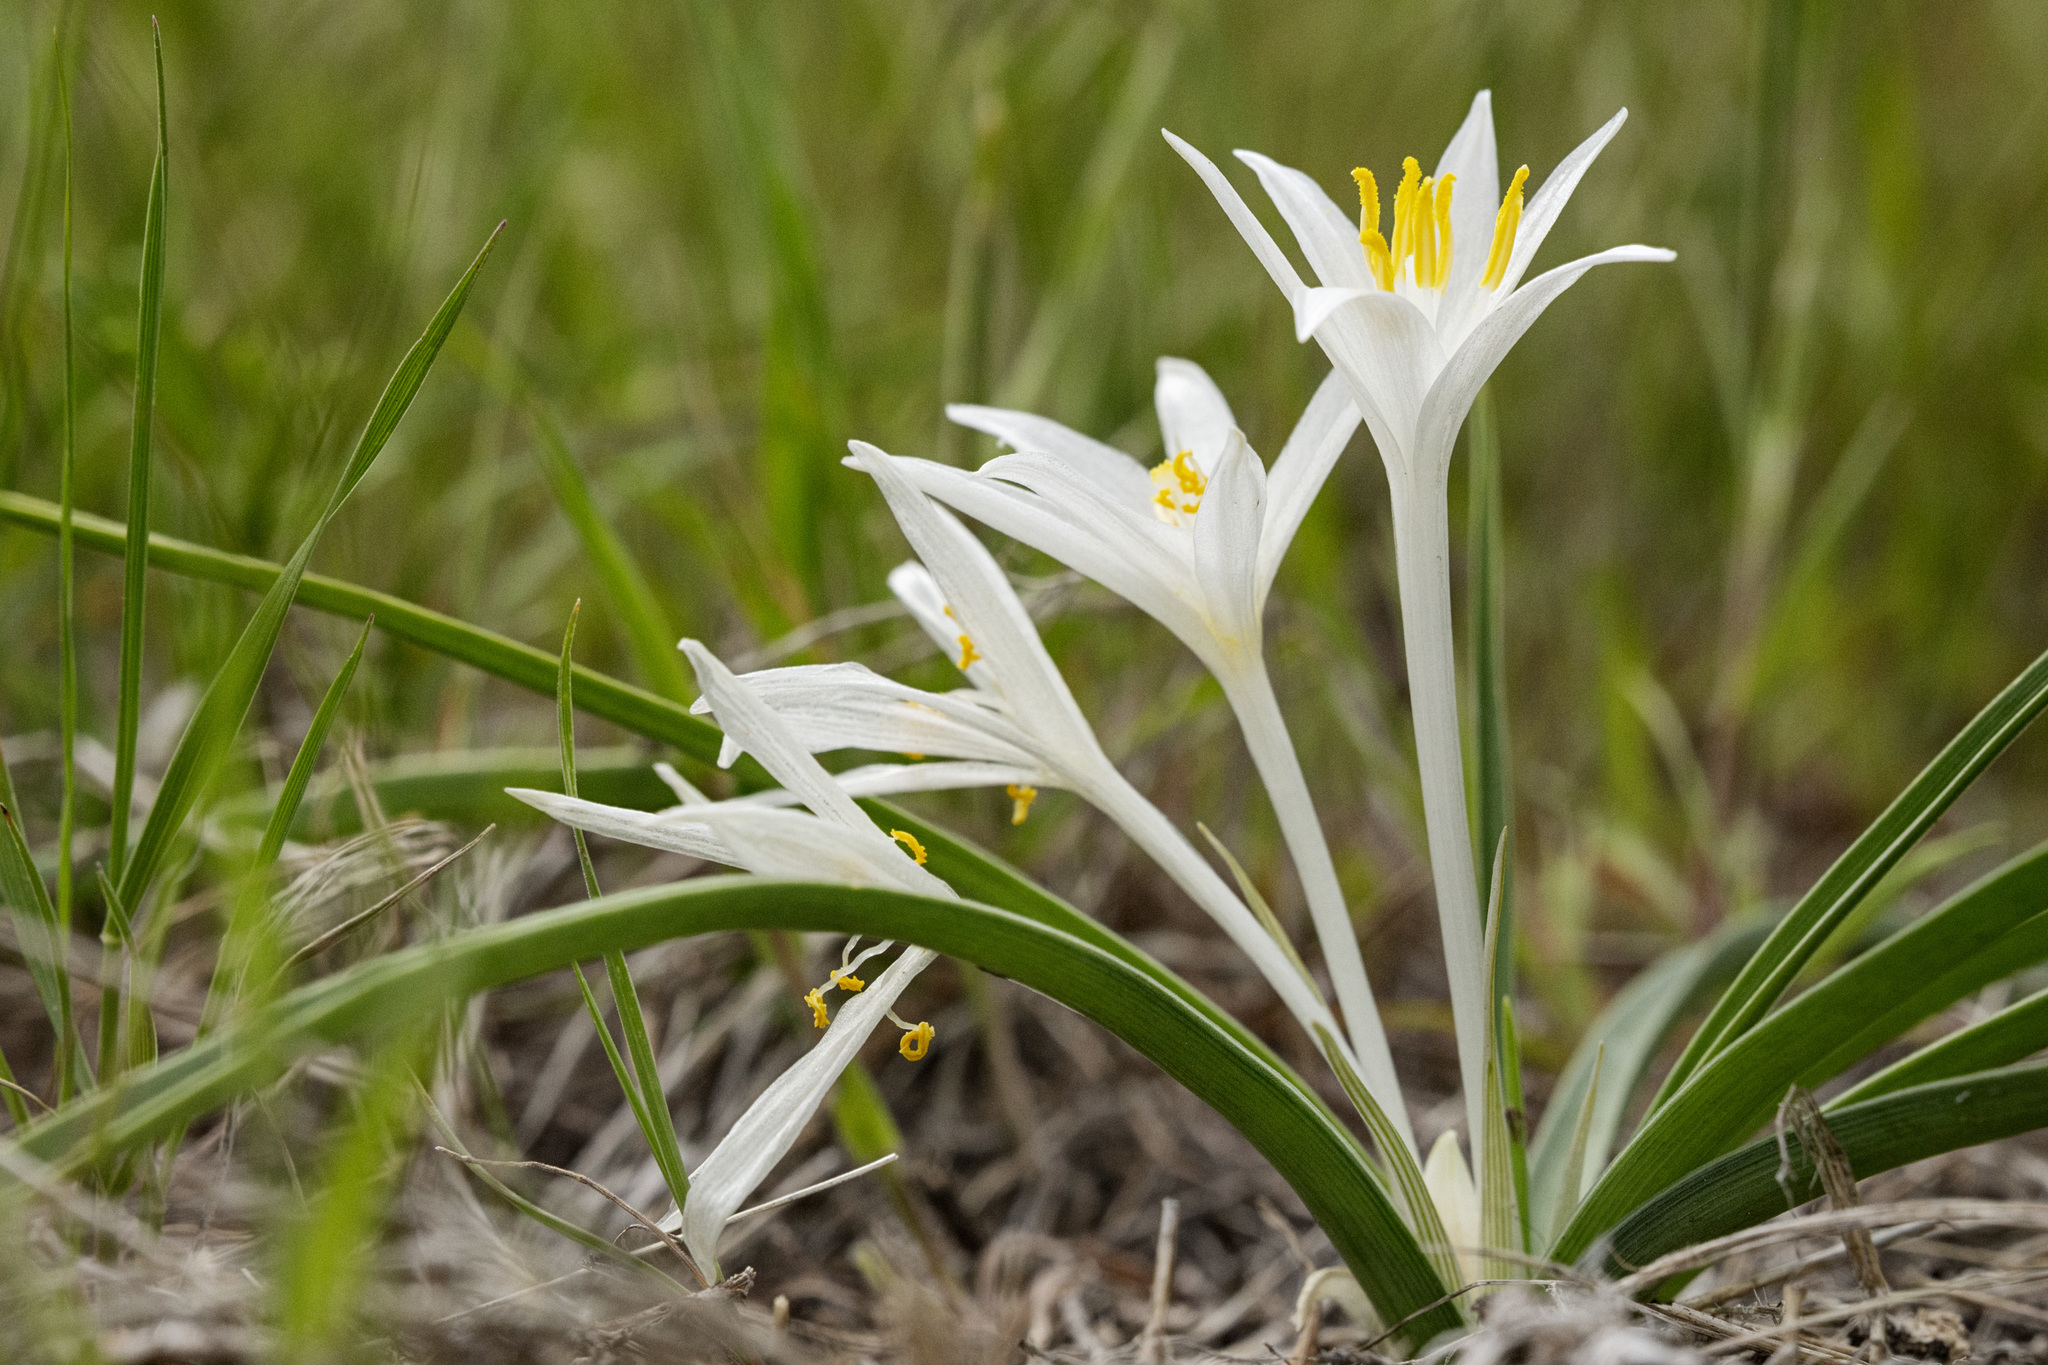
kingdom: Plantae
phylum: Tracheophyta
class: Liliopsida
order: Asparagales
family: Asparagaceae
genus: Leucocrinum
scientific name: Leucocrinum montanum
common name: Mountain-lily
